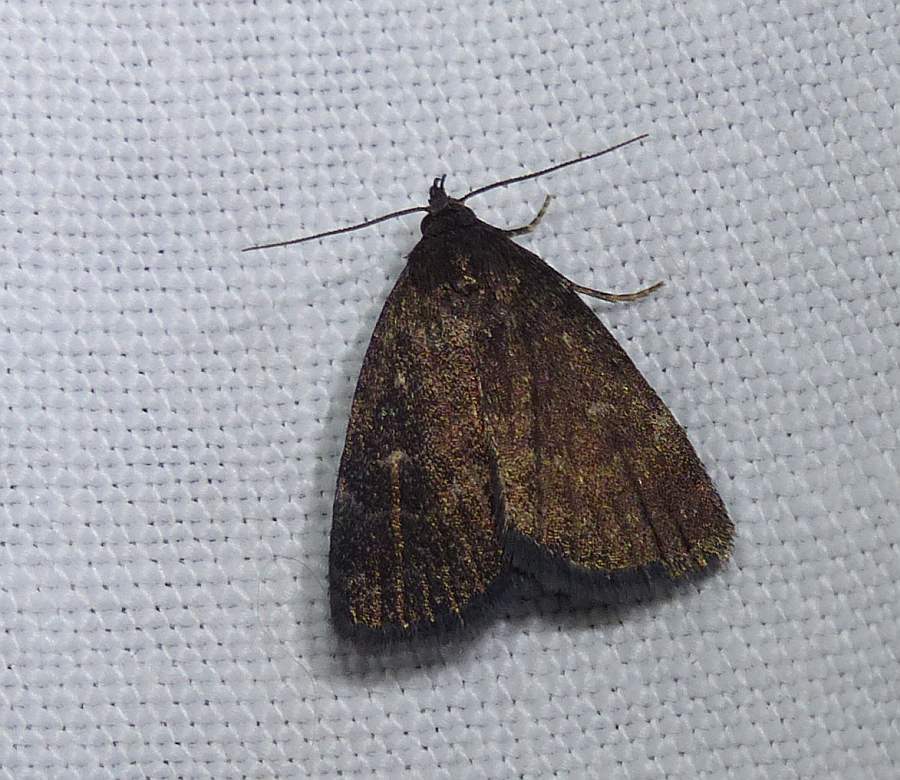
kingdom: Animalia
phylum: Arthropoda
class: Insecta
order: Lepidoptera
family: Erebidae
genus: Idia
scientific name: Idia rotundalis
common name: Rotund idia moth
